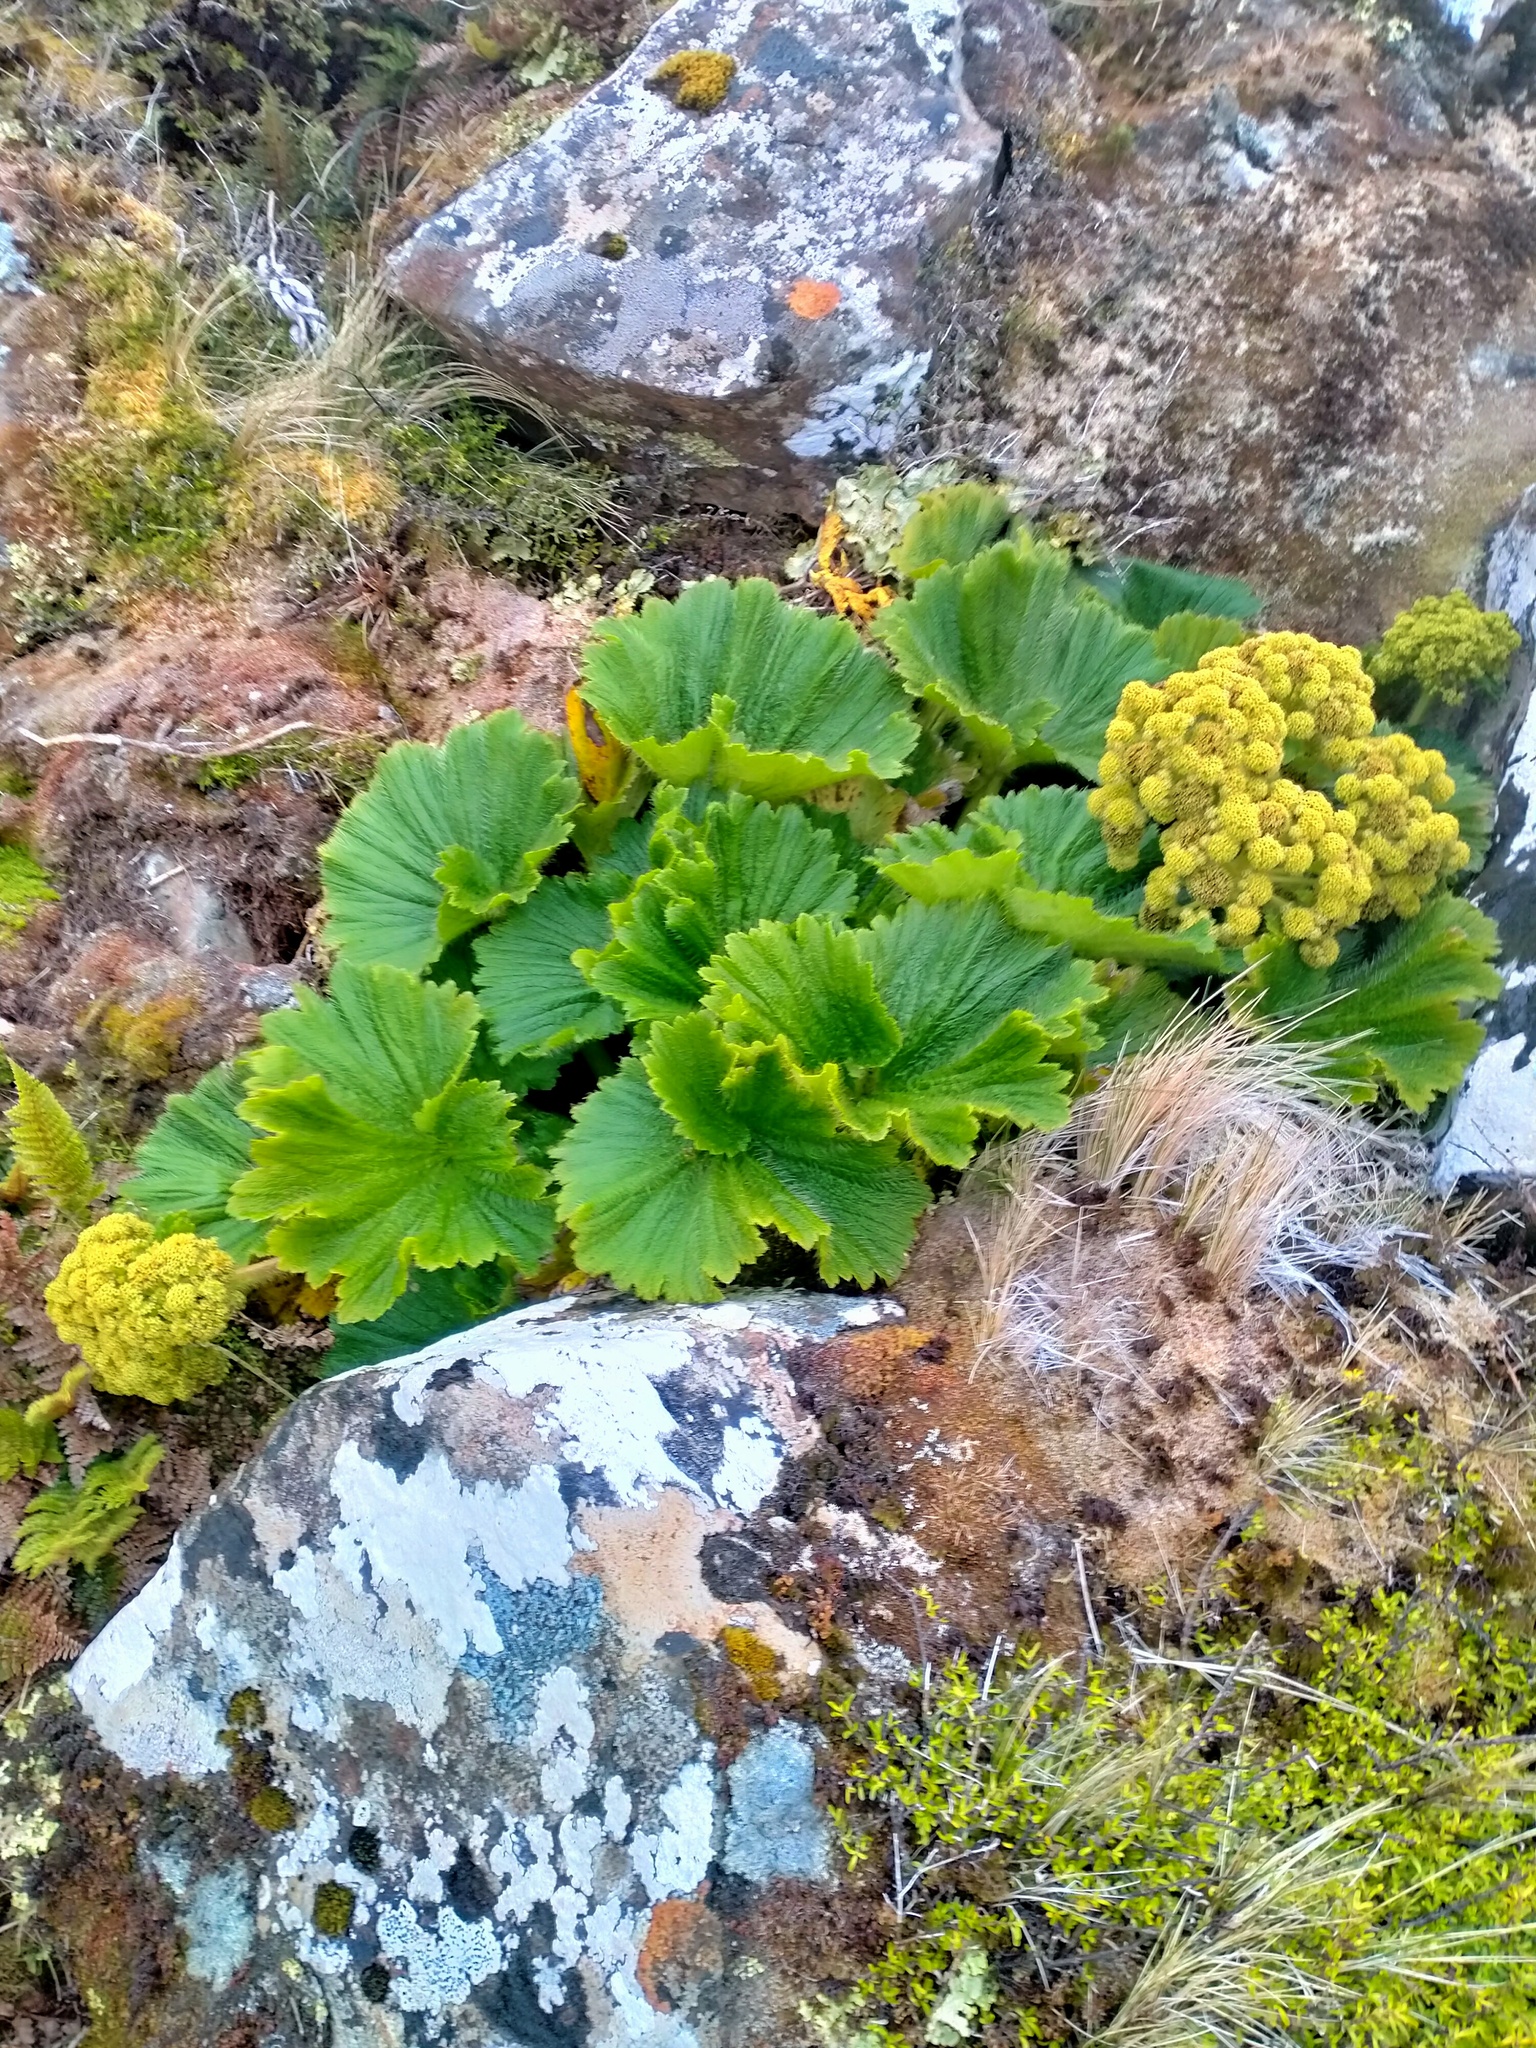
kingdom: Plantae
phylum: Tracheophyta
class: Magnoliopsida
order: Apiales
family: Apiaceae
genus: Azorella
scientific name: Azorella polaris
